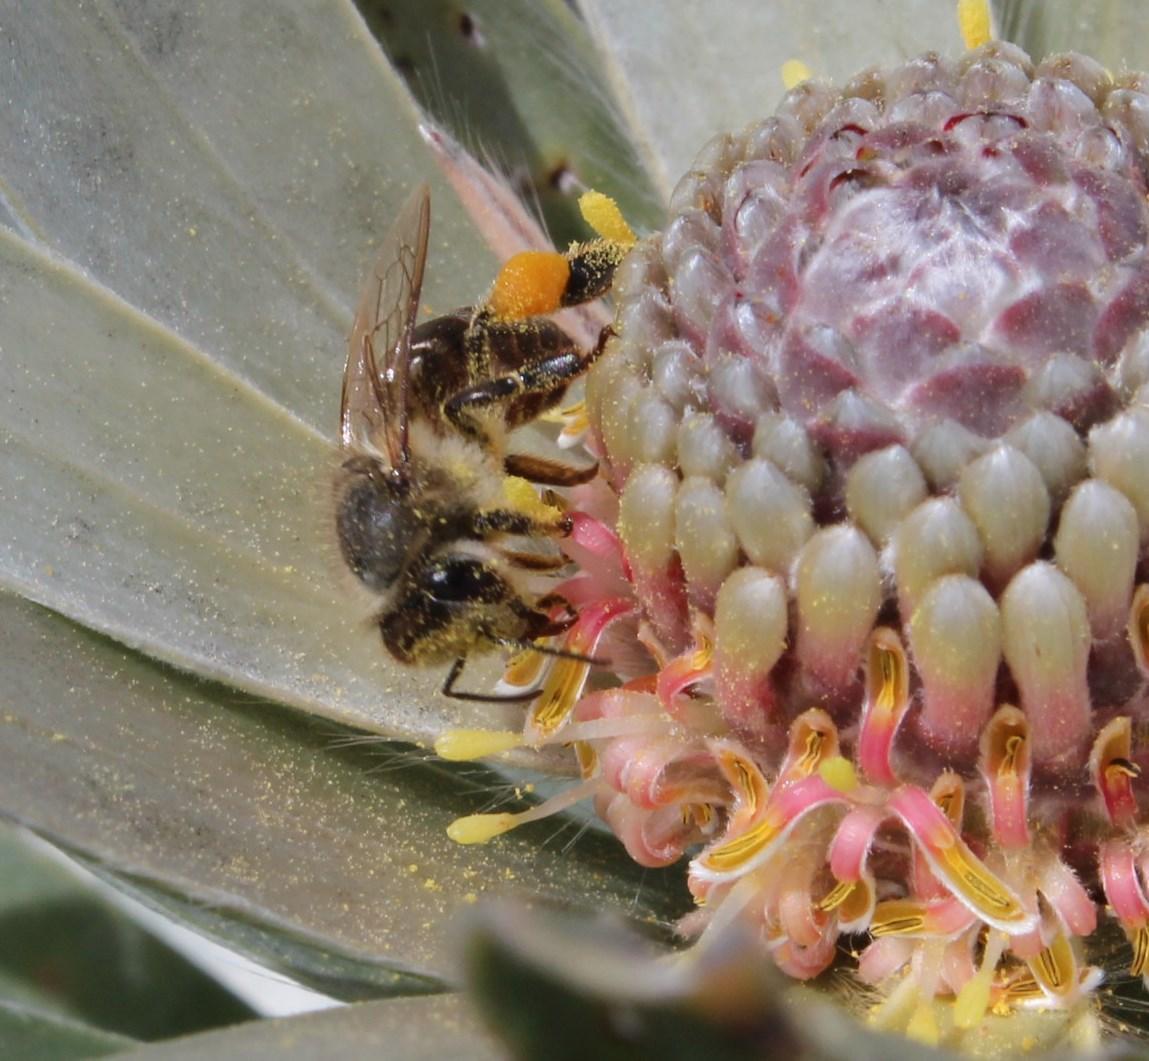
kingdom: Animalia
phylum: Arthropoda
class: Insecta
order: Hymenoptera
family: Apidae
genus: Apis
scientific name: Apis mellifera
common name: Honey bee
